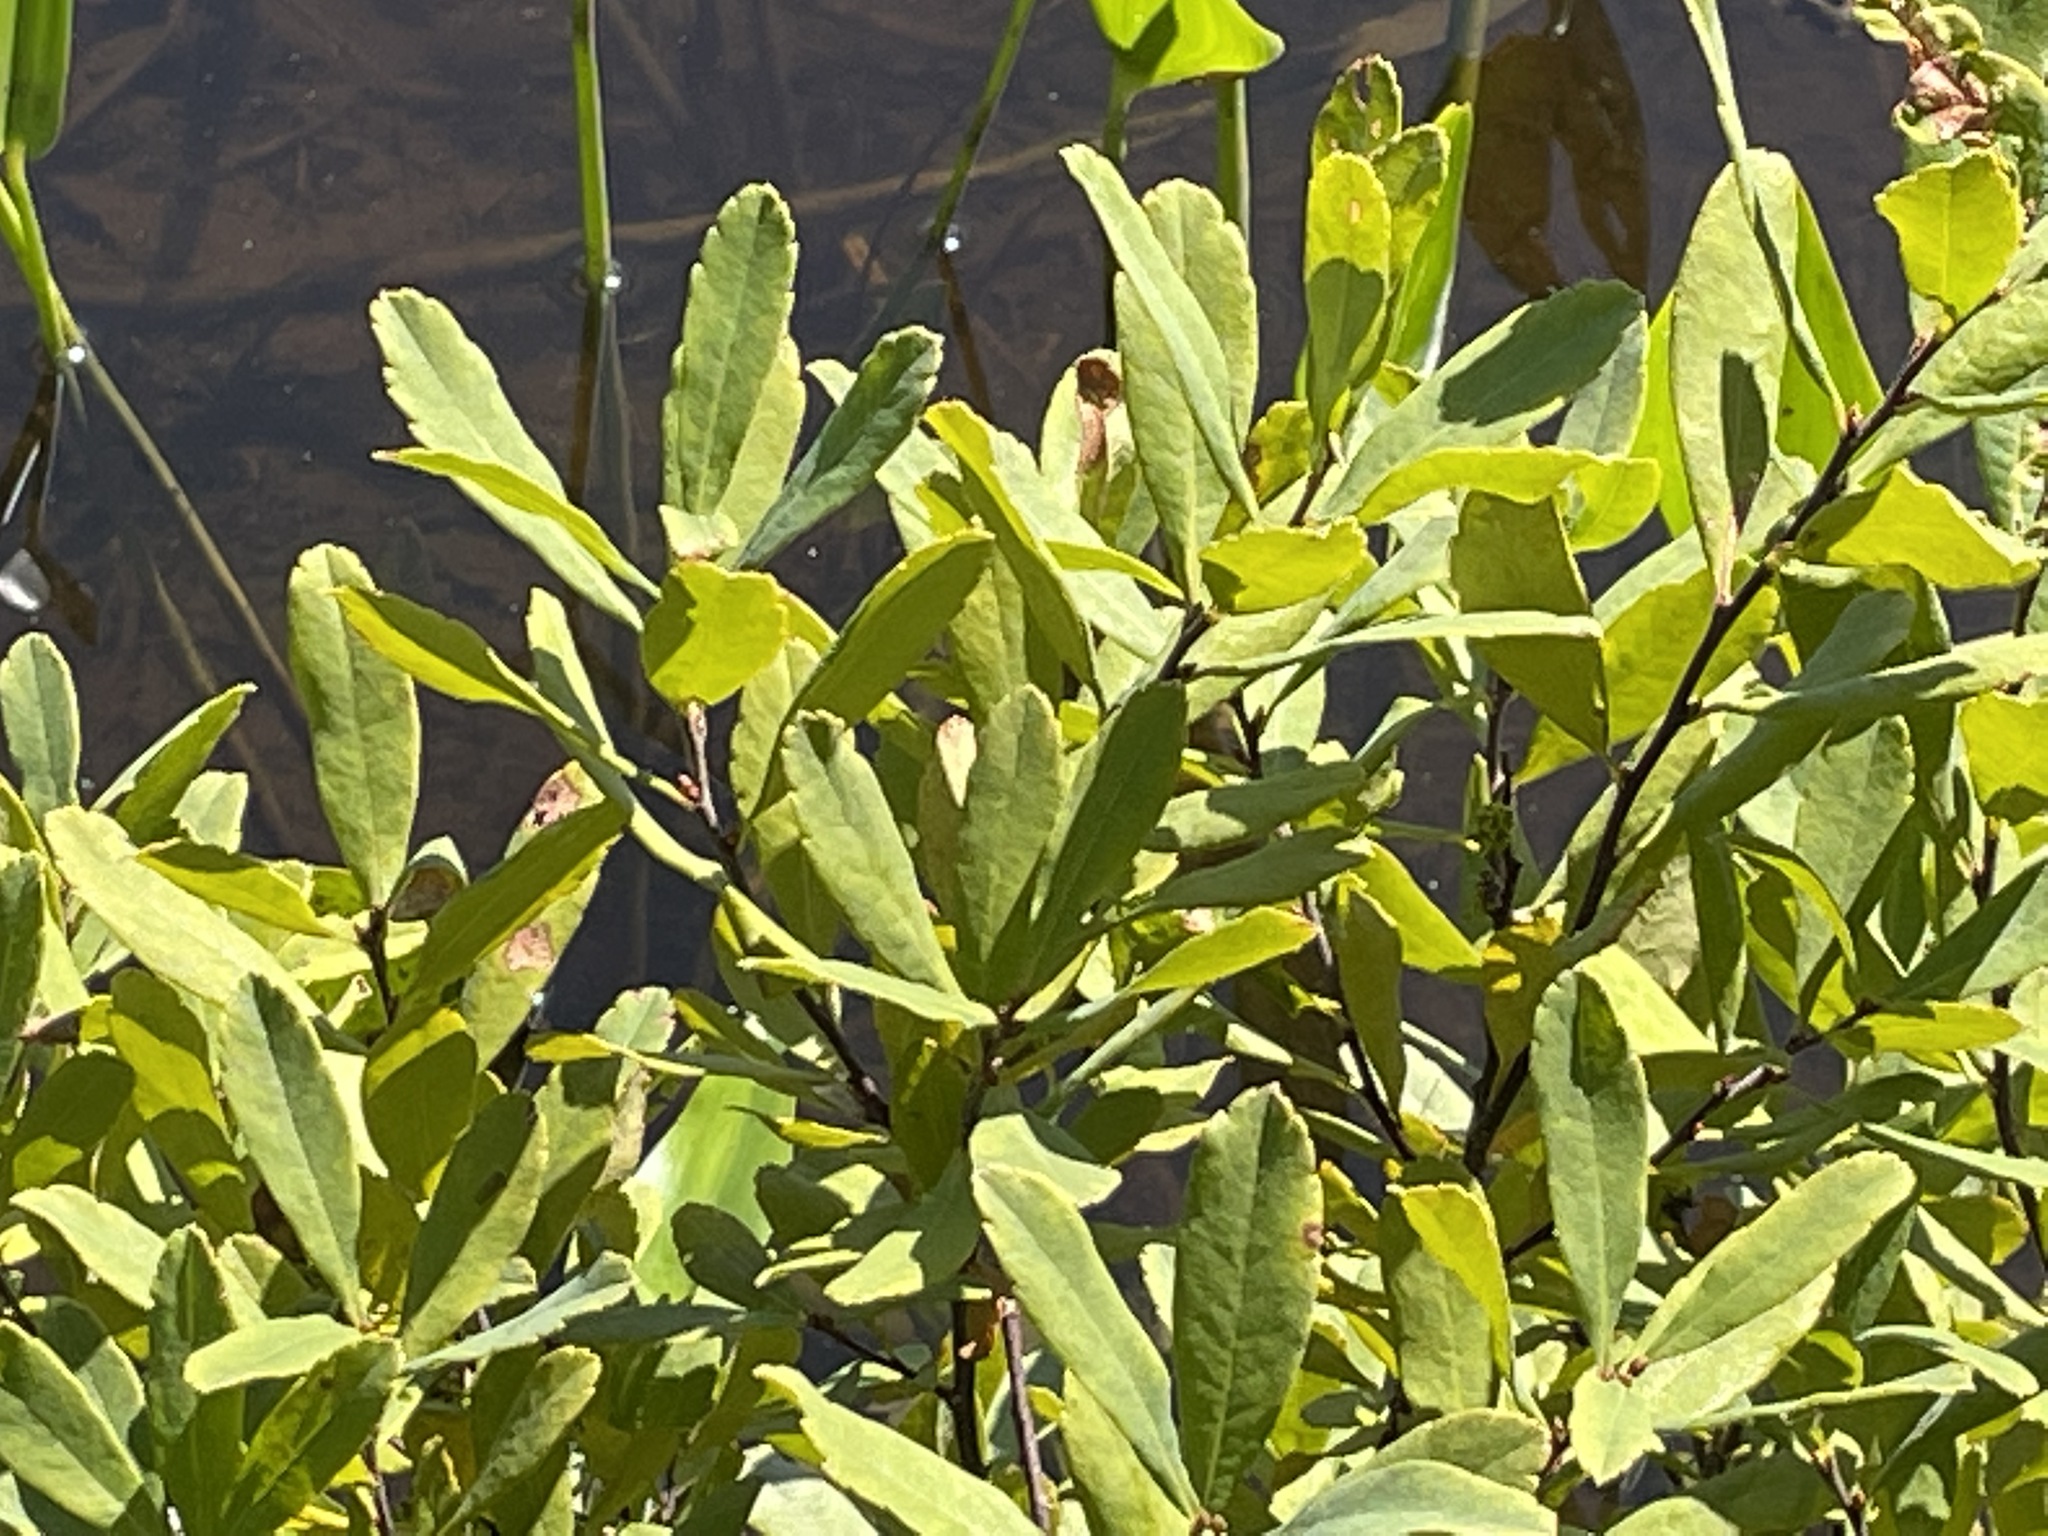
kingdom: Plantae
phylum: Tracheophyta
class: Magnoliopsida
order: Fagales
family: Myricaceae
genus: Myrica
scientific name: Myrica gale
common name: Sweet gale
